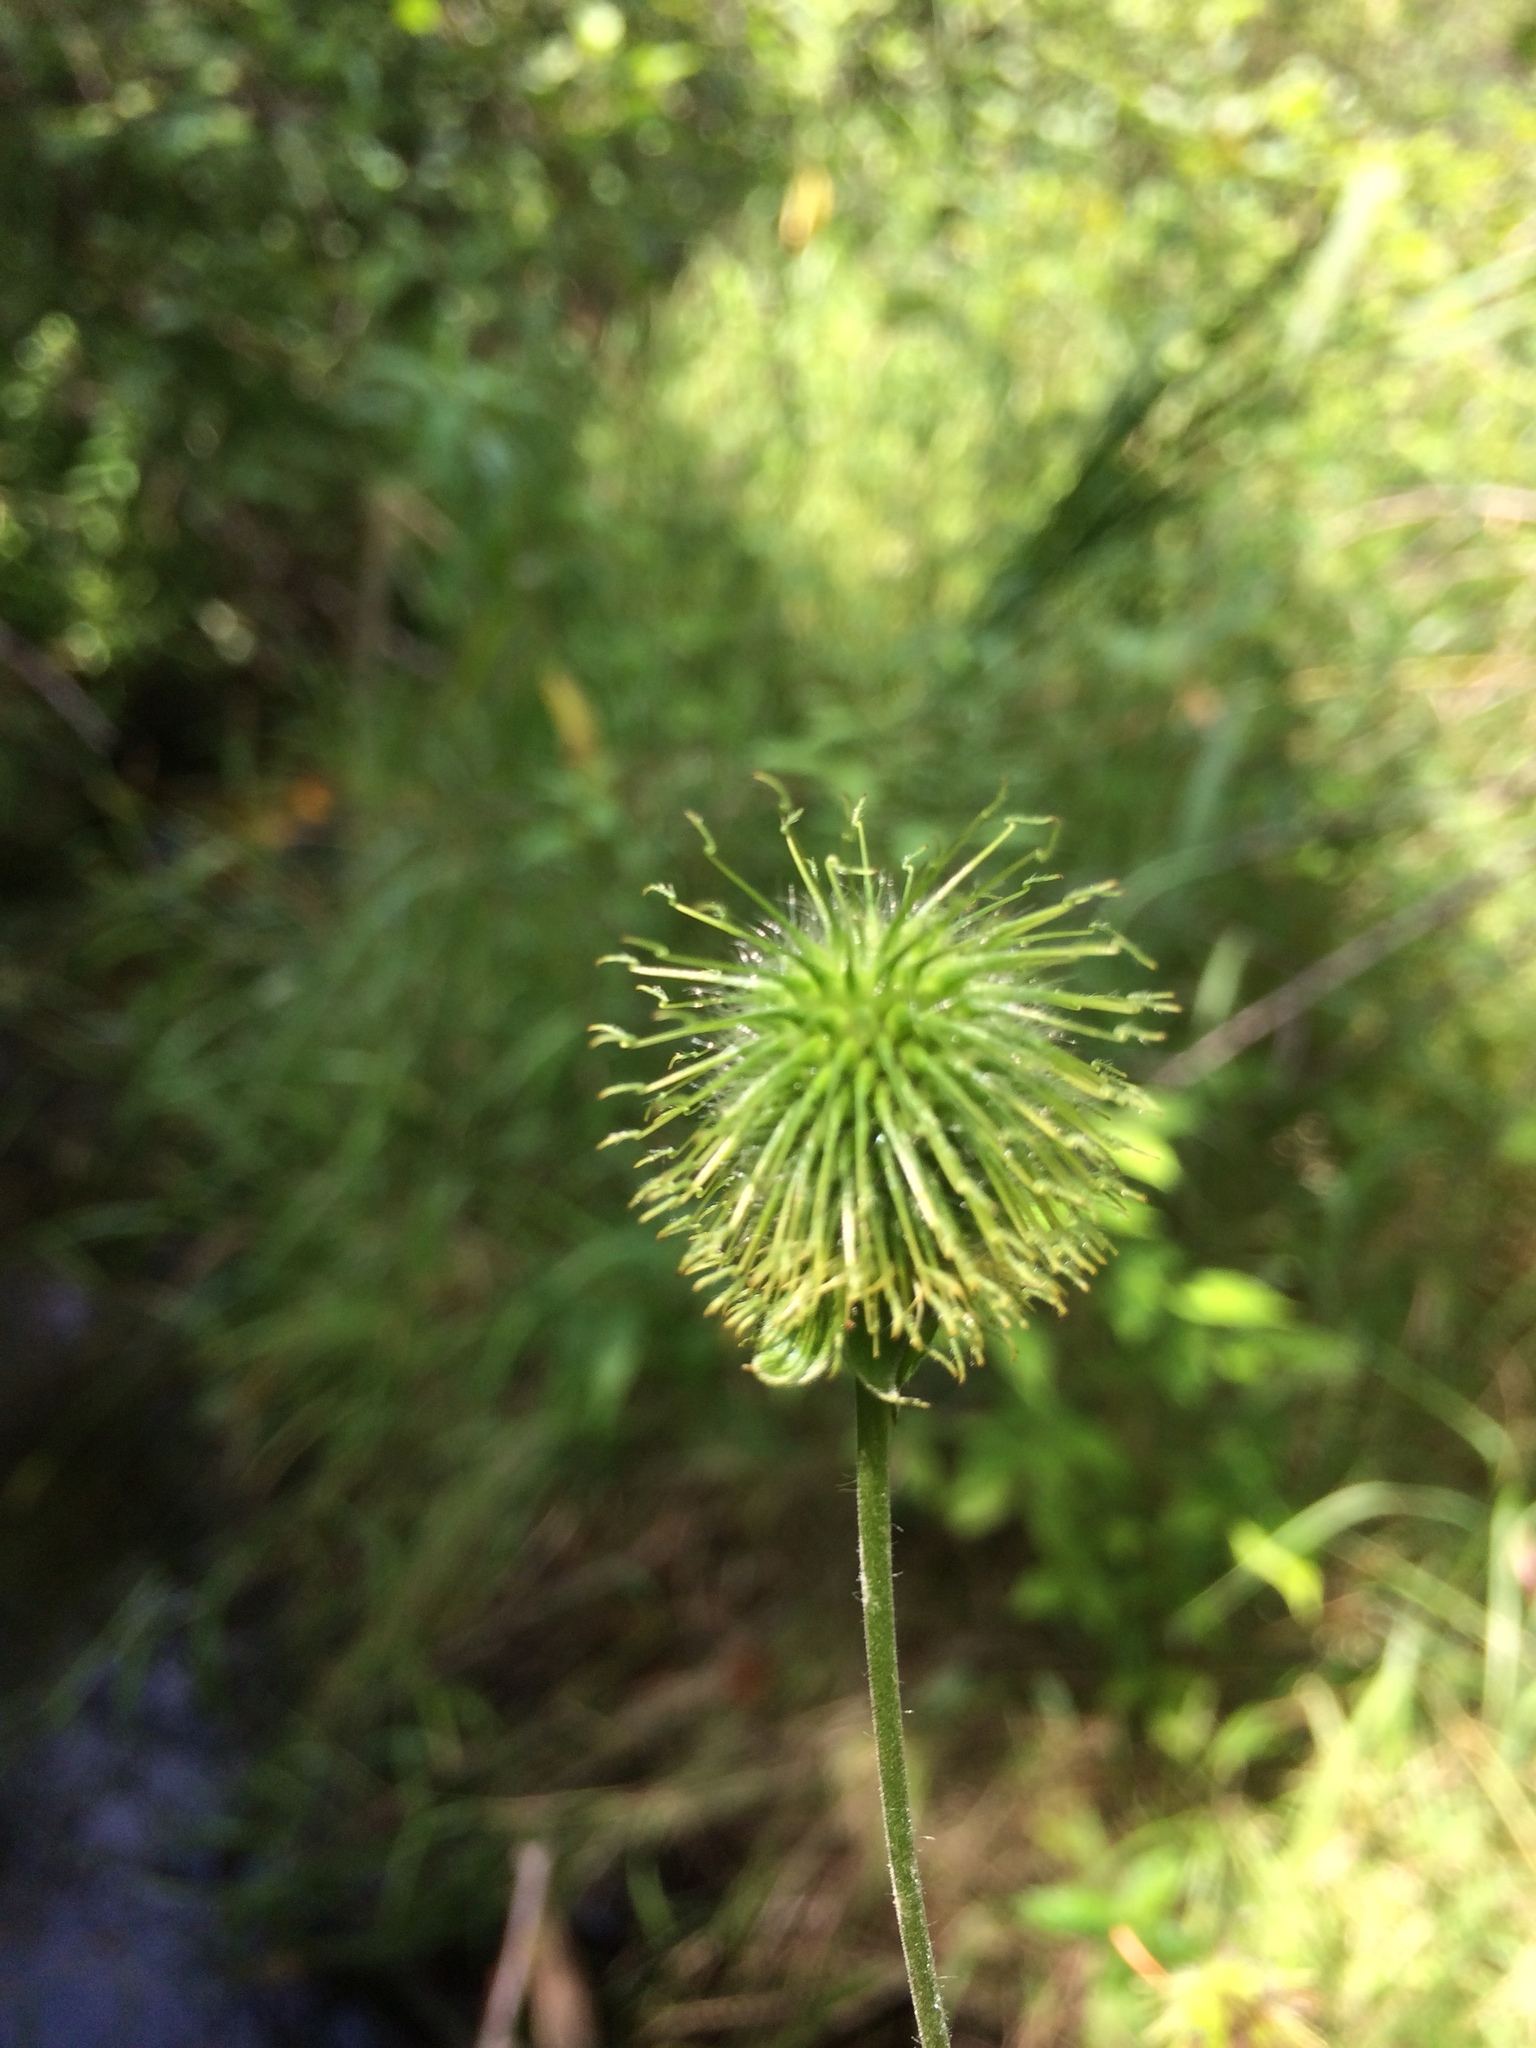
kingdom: Plantae
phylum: Tracheophyta
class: Magnoliopsida
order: Rosales
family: Rosaceae
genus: Geum
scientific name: Geum aleppicum
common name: Yellow avens
